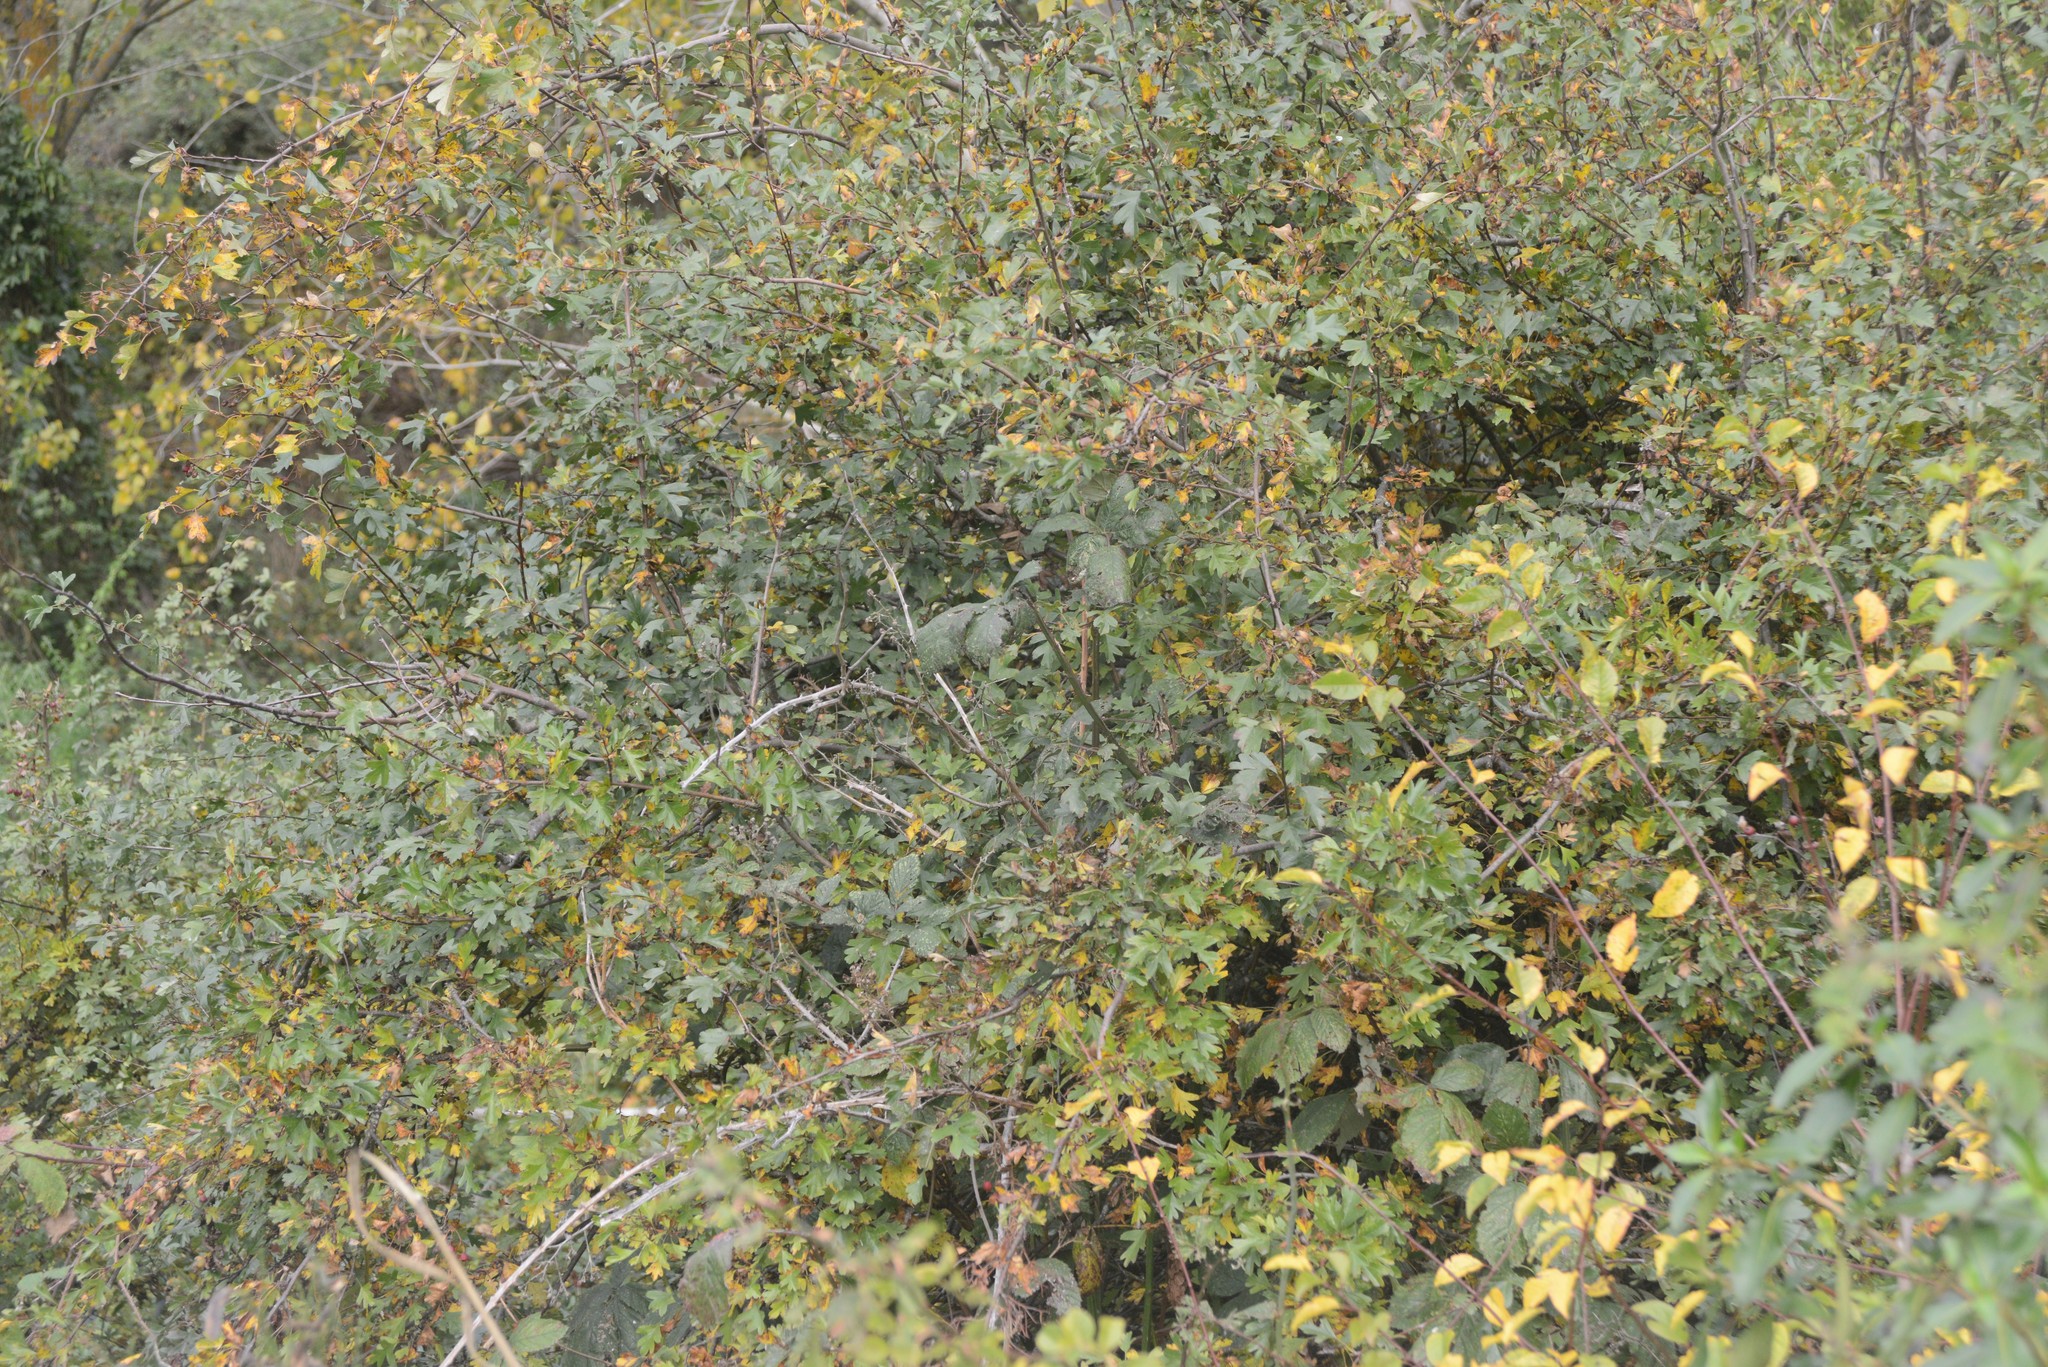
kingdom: Plantae
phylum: Tracheophyta
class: Magnoliopsida
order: Rosales
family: Rosaceae
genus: Crataegus
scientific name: Crataegus monogyna
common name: Hawthorn
